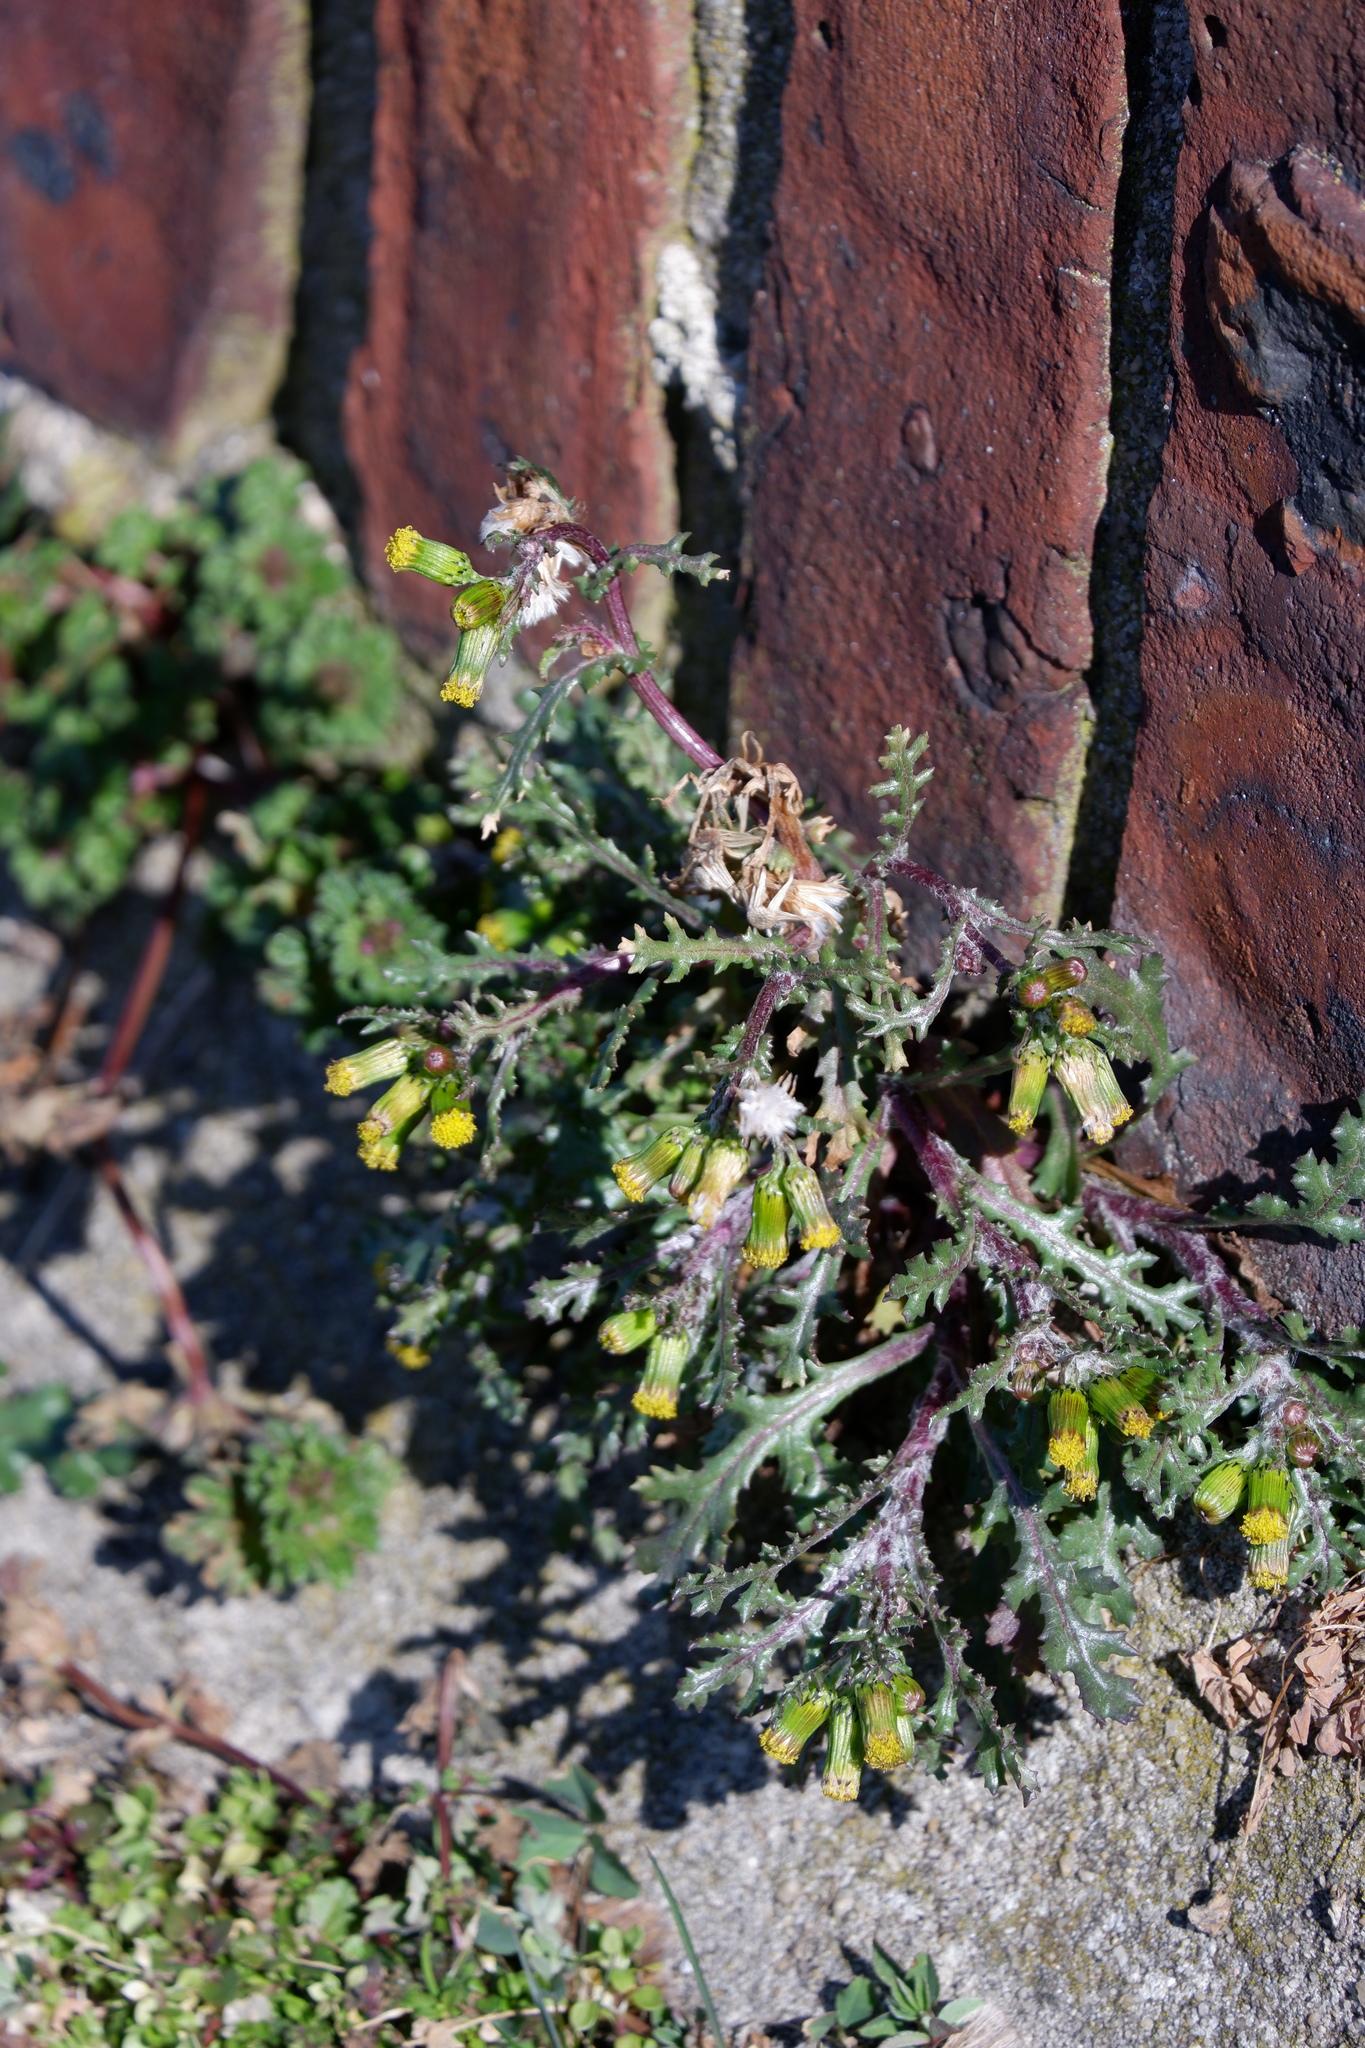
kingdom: Plantae
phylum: Tracheophyta
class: Magnoliopsida
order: Asterales
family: Asteraceae
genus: Senecio
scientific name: Senecio vulgaris
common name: Old-man-in-the-spring
